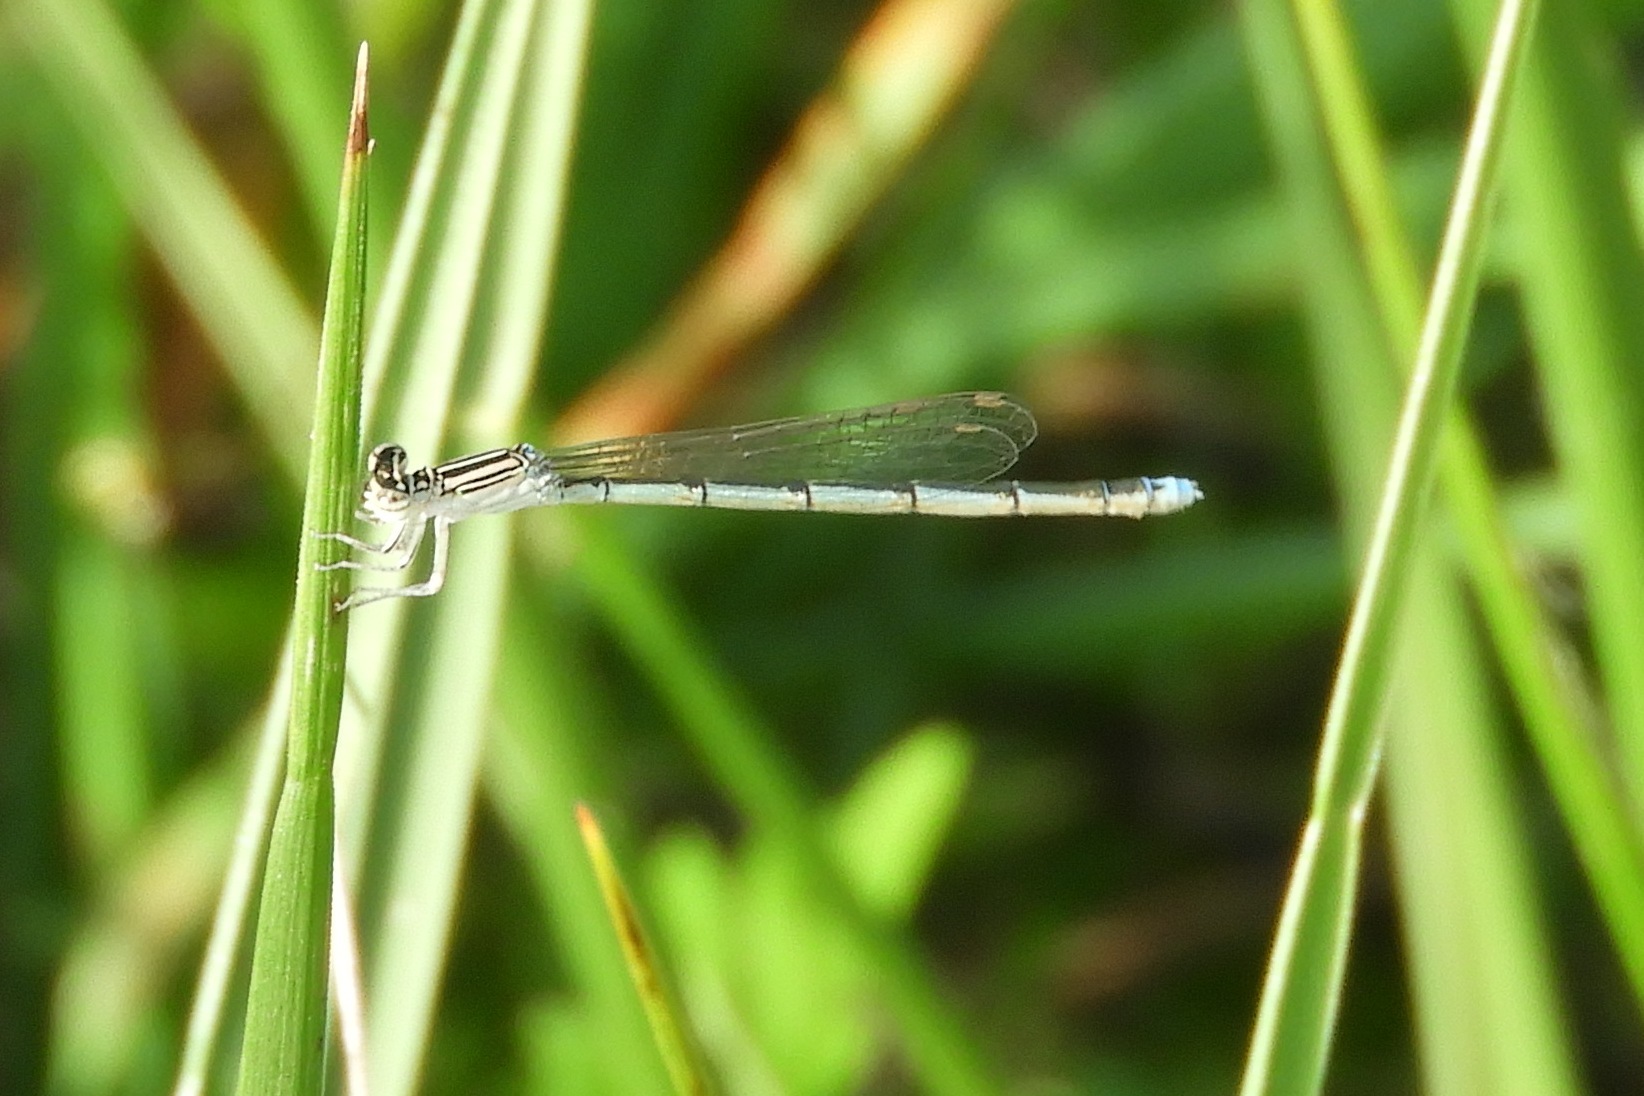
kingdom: Animalia
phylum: Arthropoda
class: Insecta
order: Odonata
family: Coenagrionidae
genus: Enallagma
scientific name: Enallagma basidens
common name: Double-striped bluet
